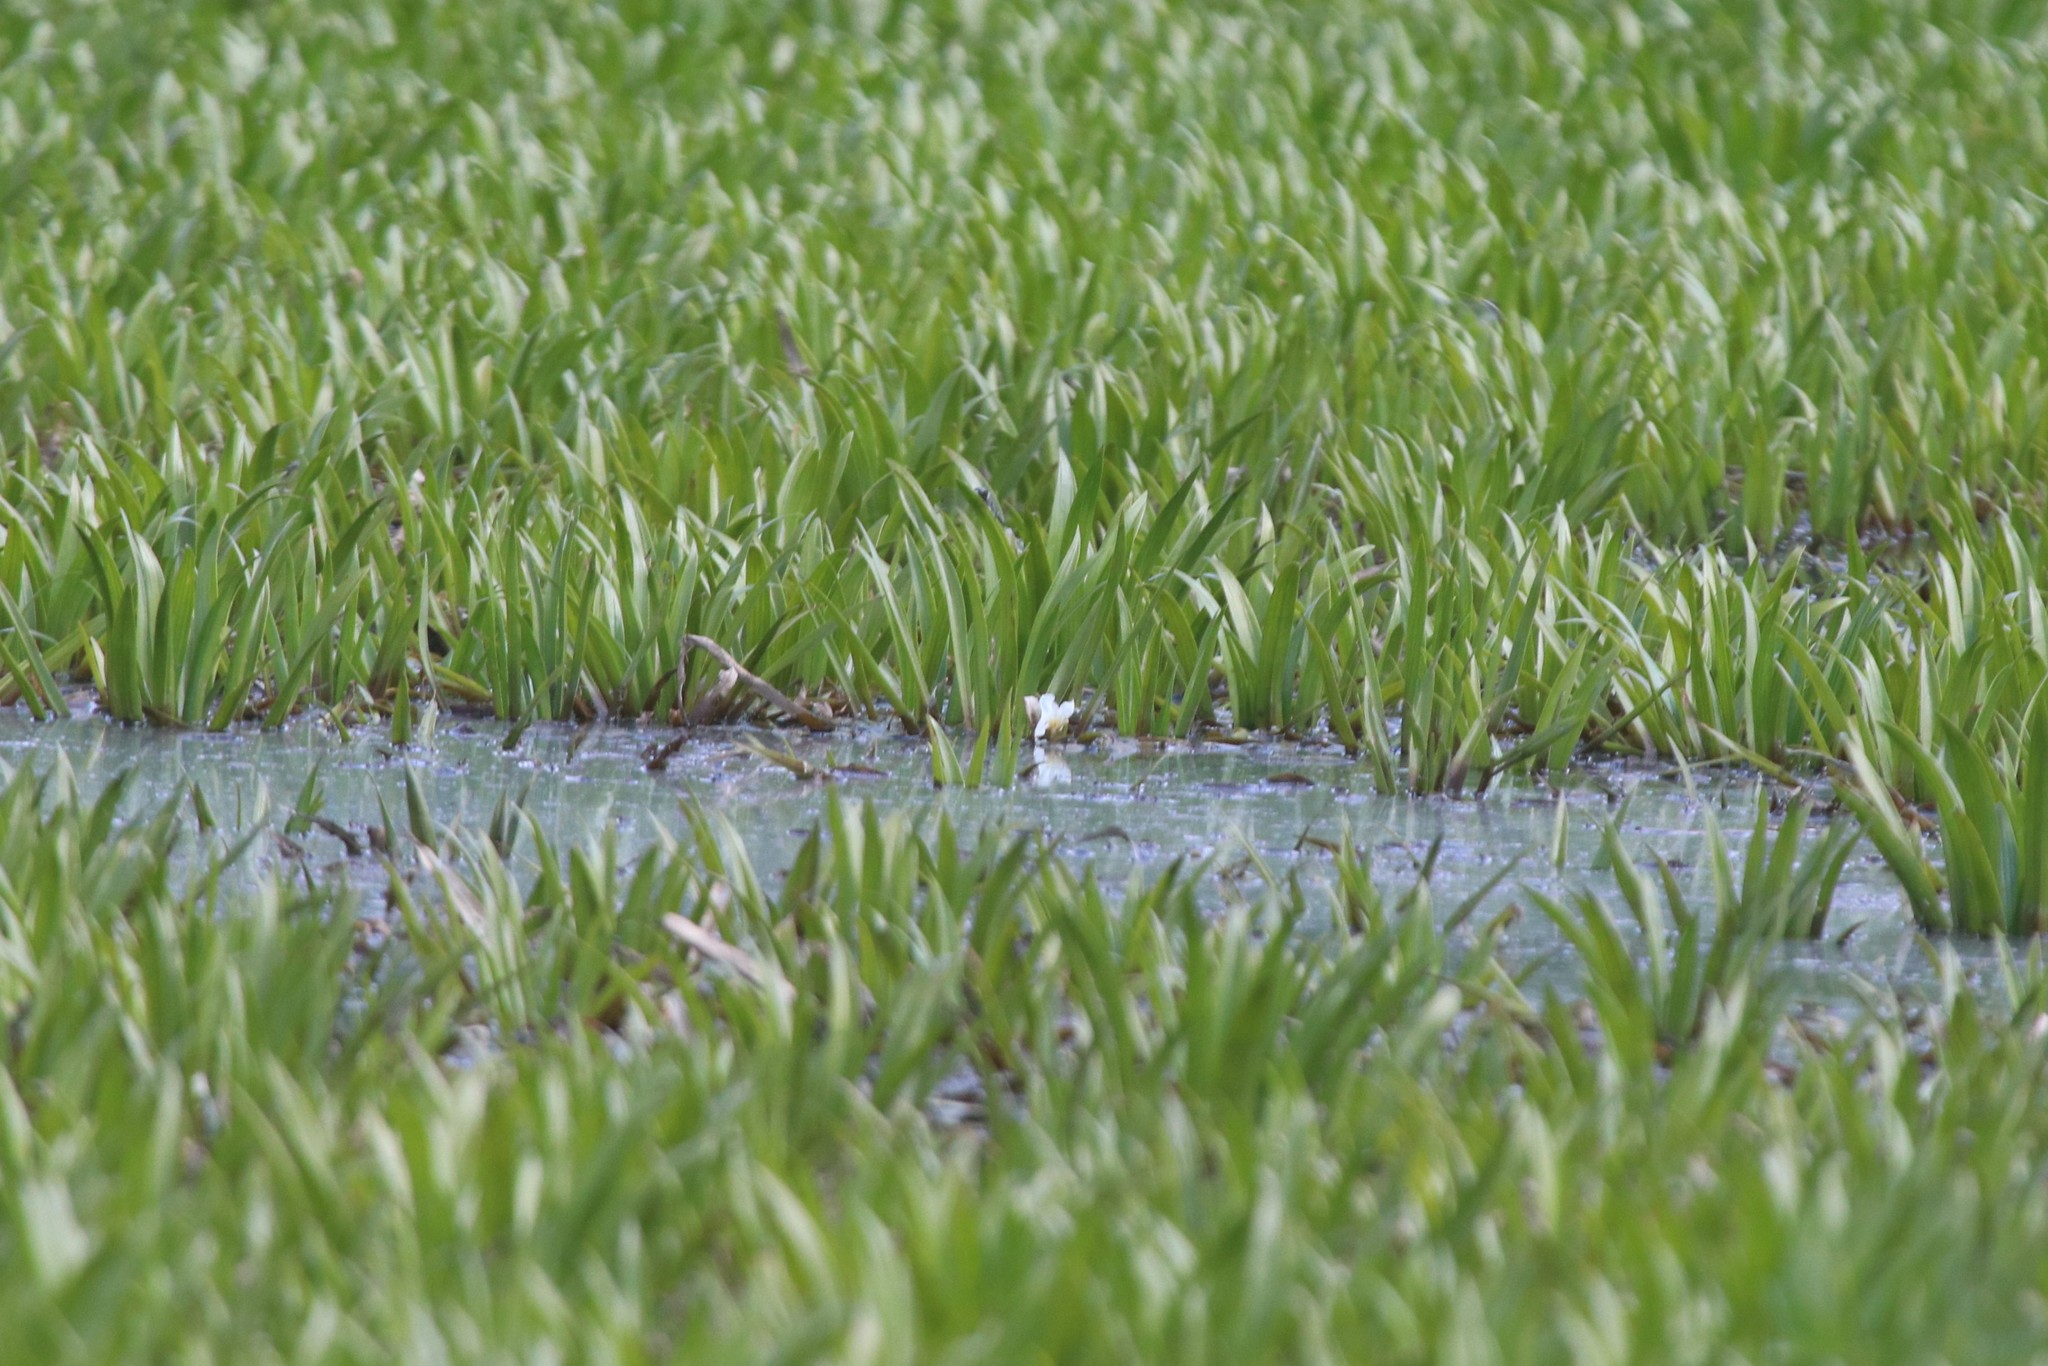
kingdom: Plantae
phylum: Tracheophyta
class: Liliopsida
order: Alismatales
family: Hydrocharitaceae
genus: Stratiotes
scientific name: Stratiotes aloides
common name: Water-soldier
